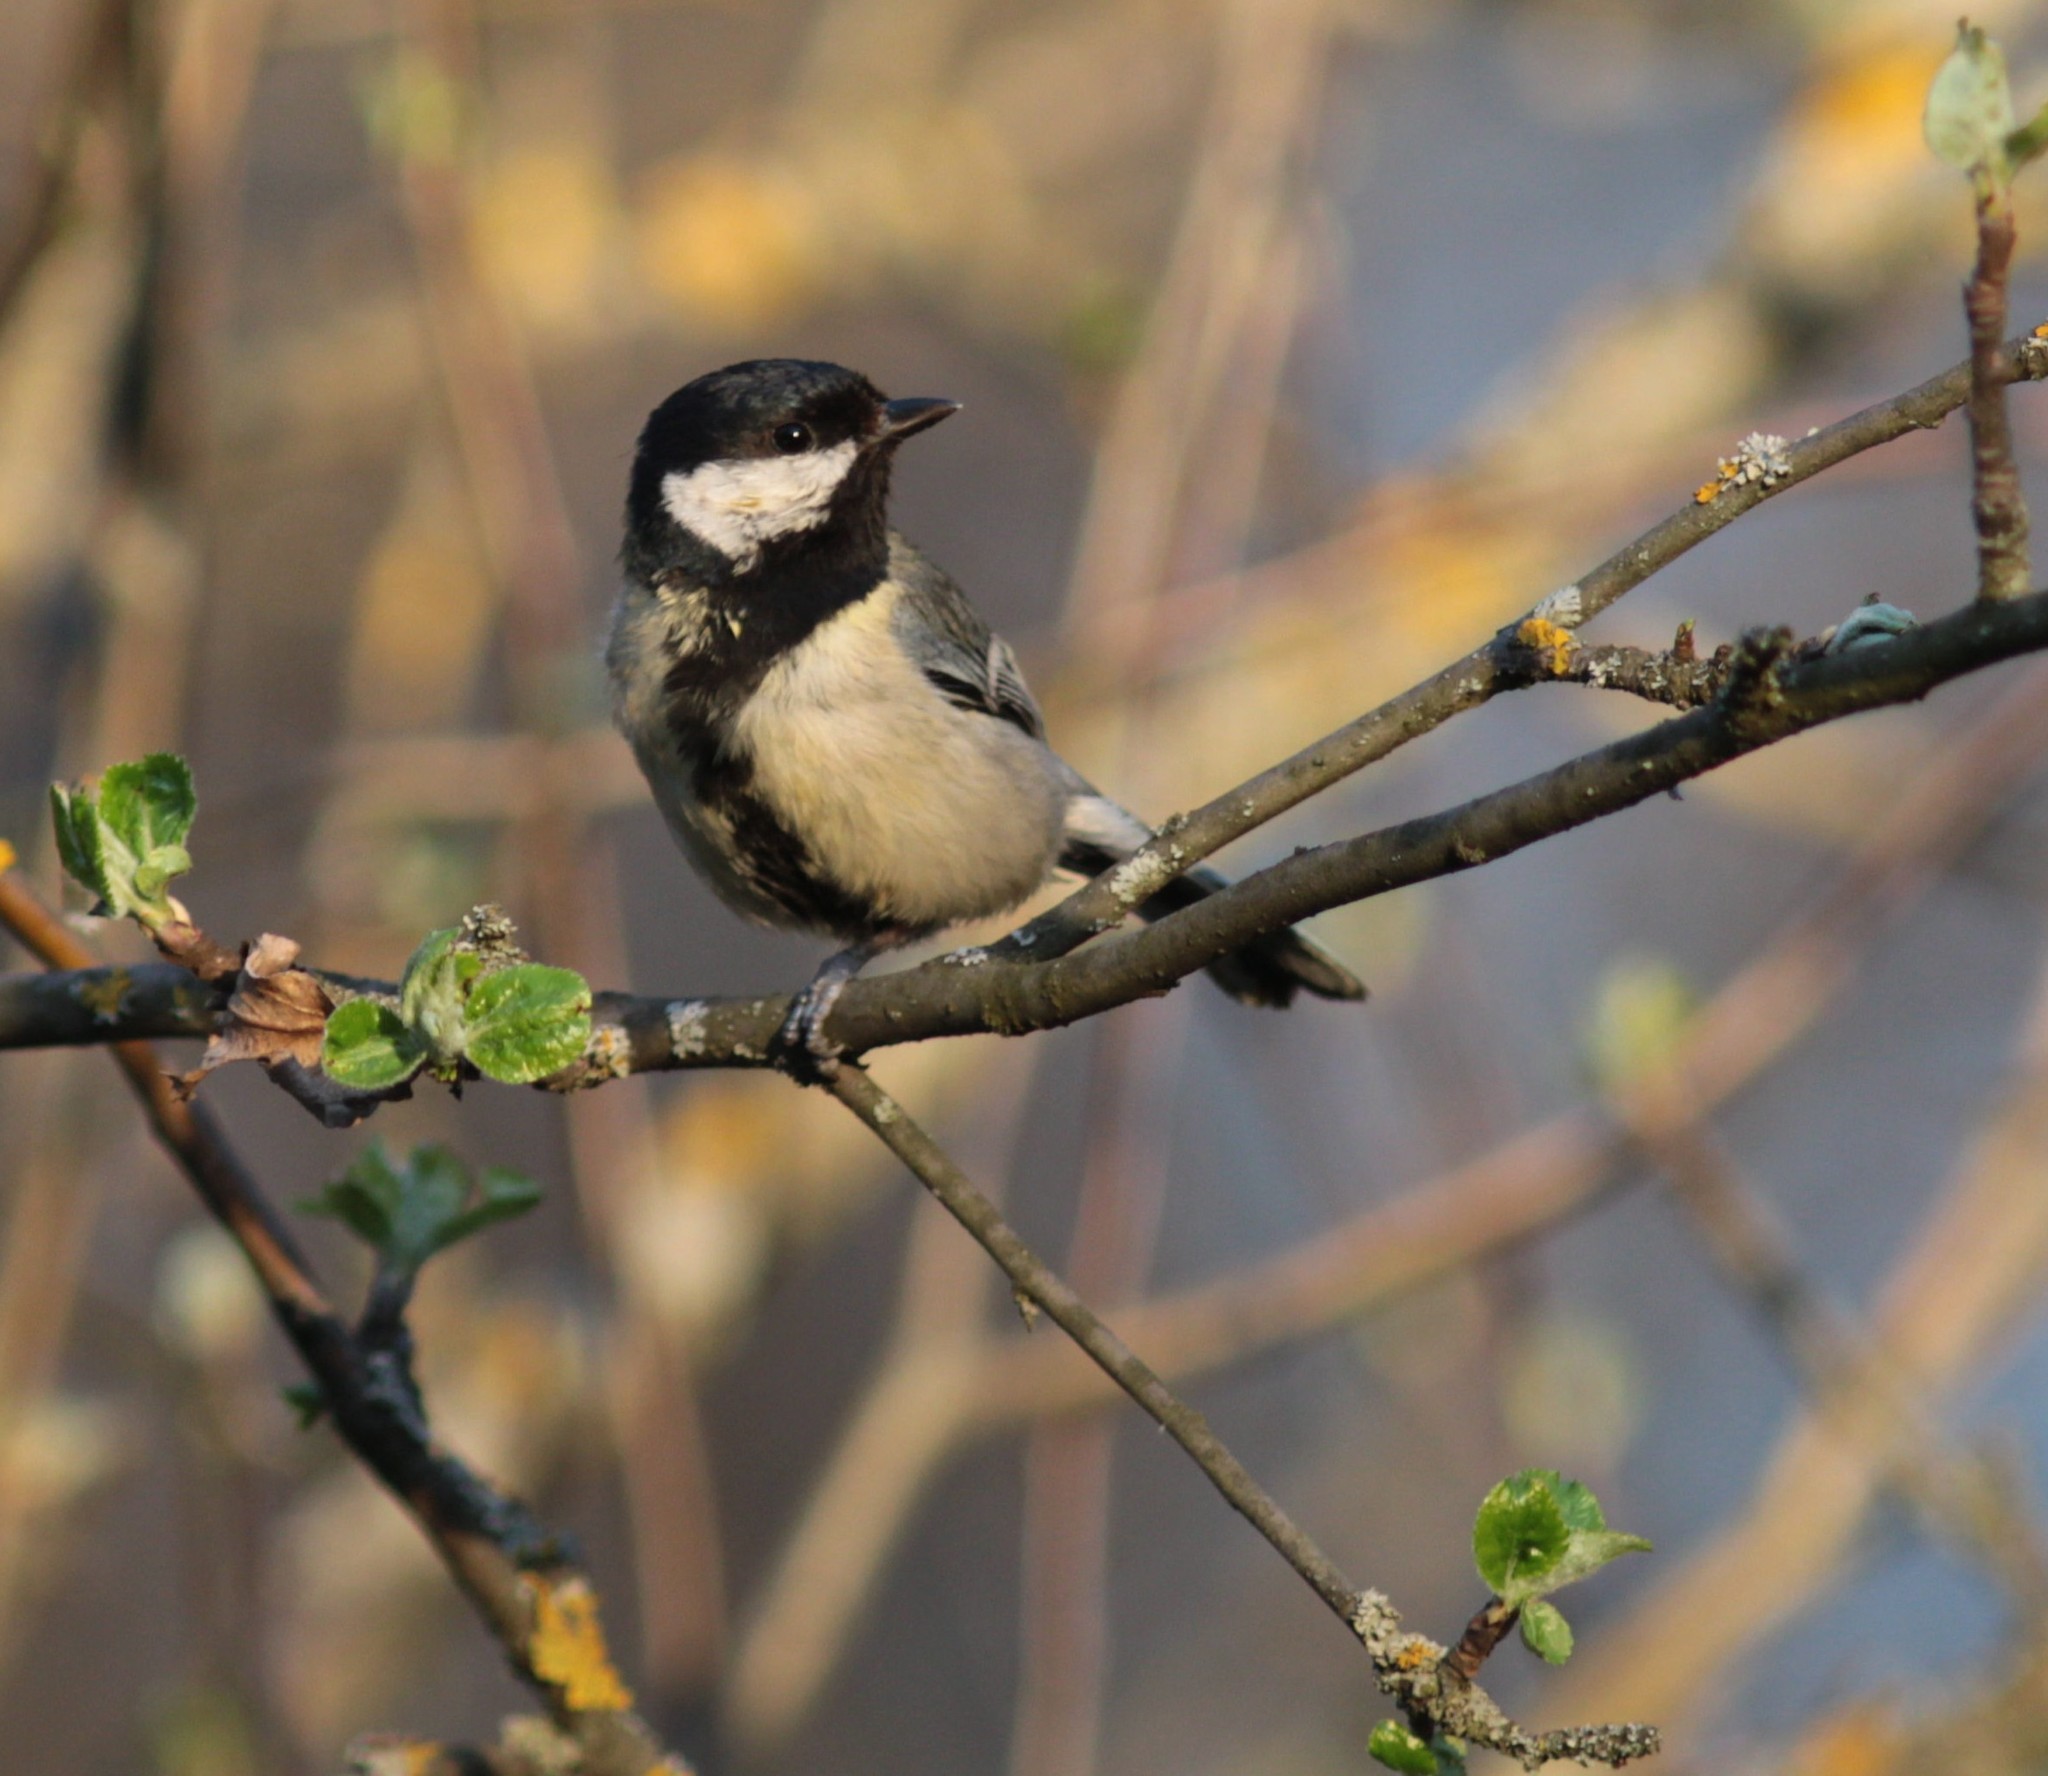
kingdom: Animalia
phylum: Chordata
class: Aves
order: Passeriformes
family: Paridae
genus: Parus
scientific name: Parus major
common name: Great tit
